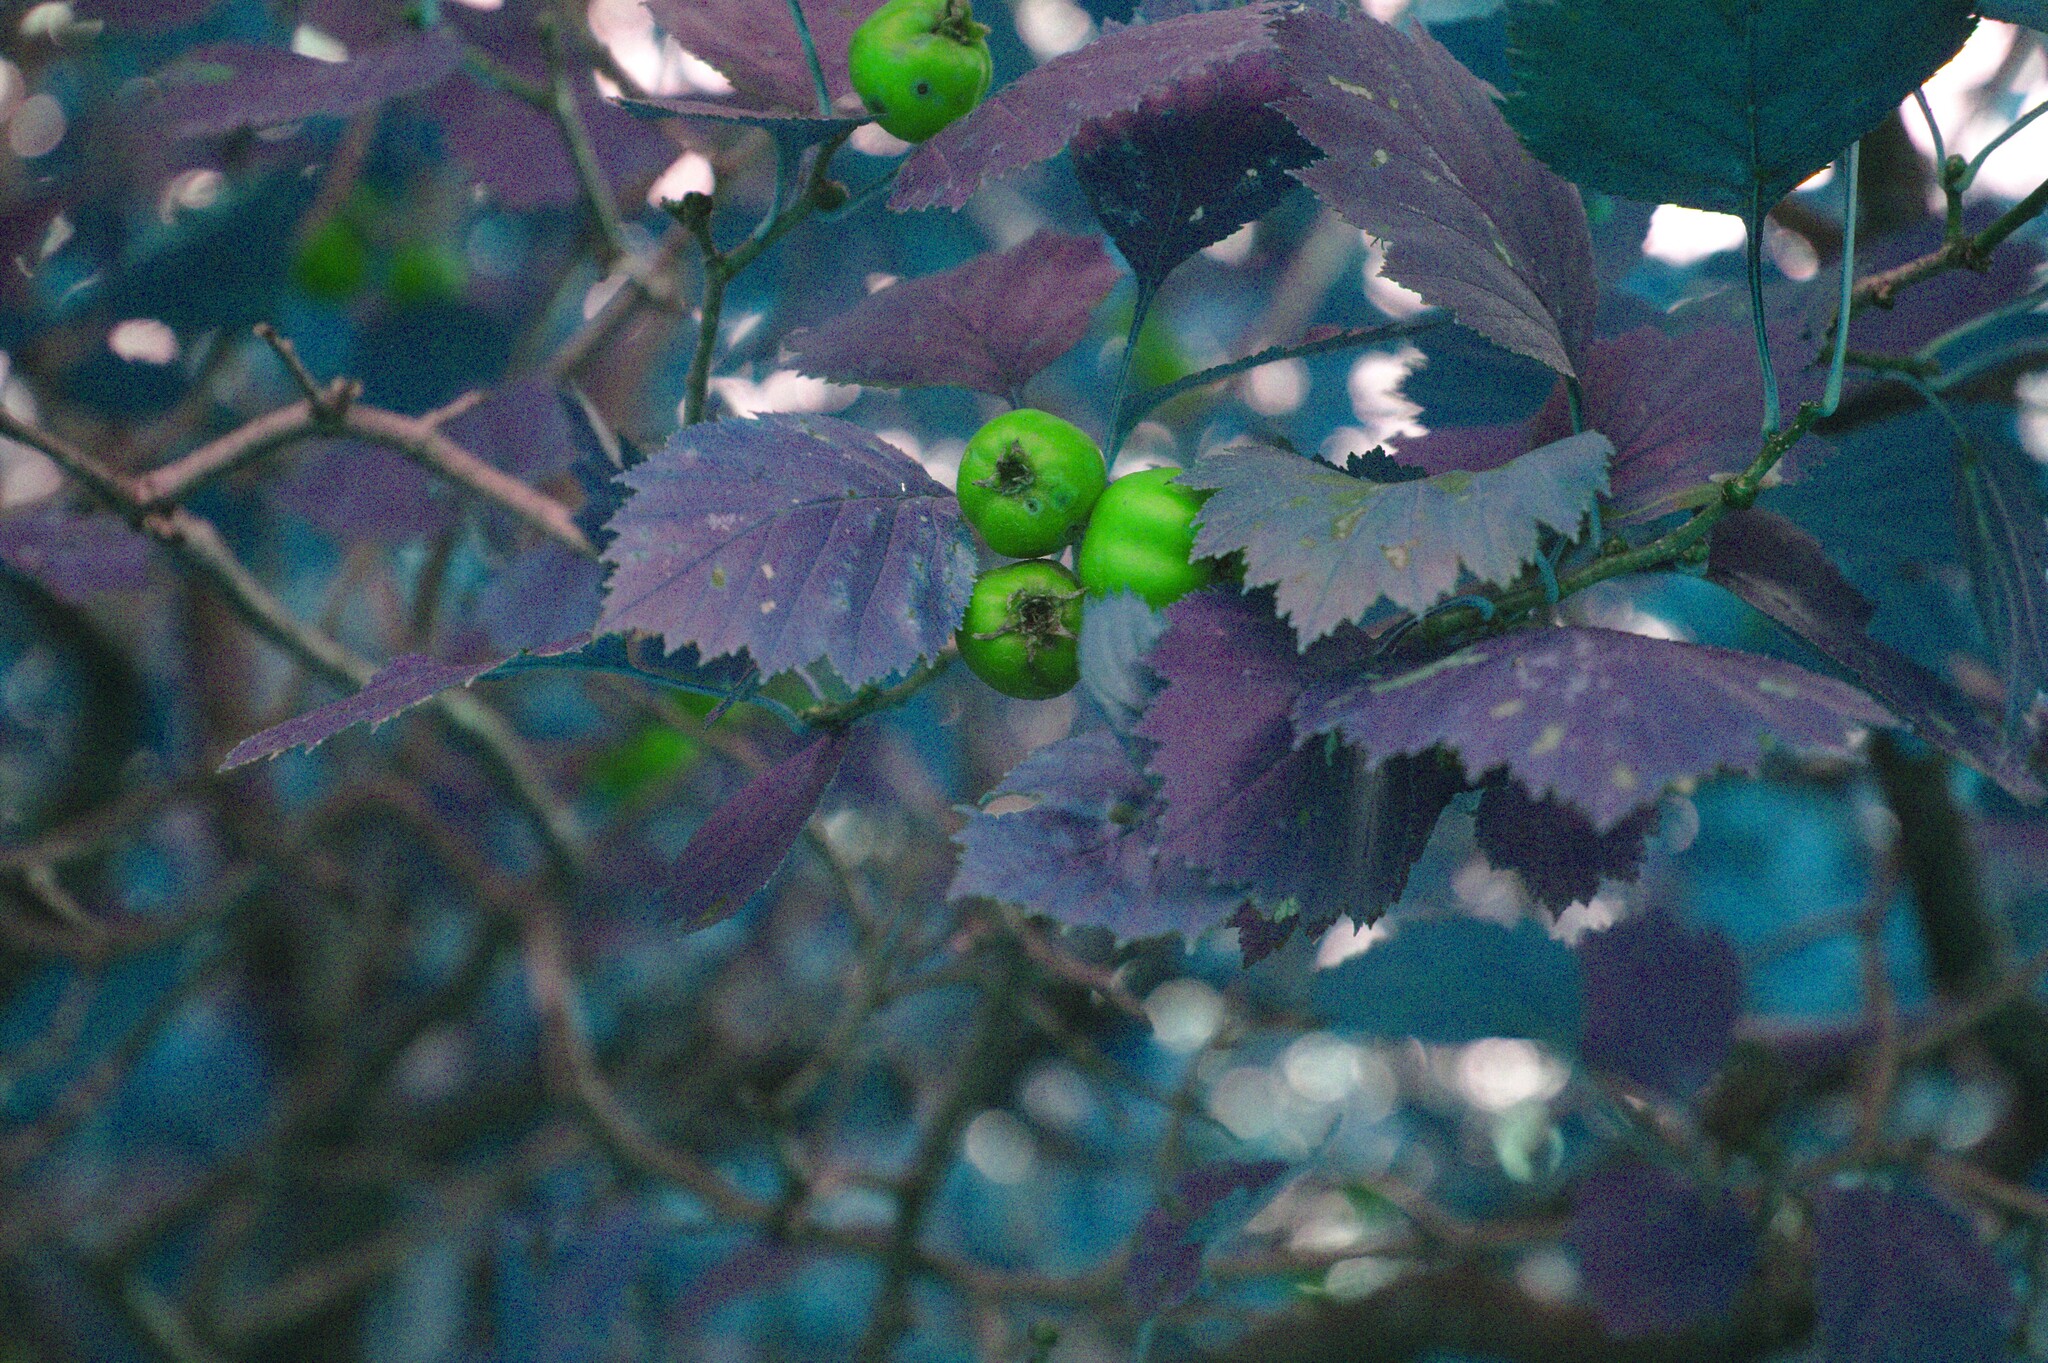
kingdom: Plantae
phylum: Tracheophyta
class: Magnoliopsida
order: Rosales
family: Rosaceae
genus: Crataegus
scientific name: Crataegus chrysocarpa
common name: Fire-berry hawthorn
